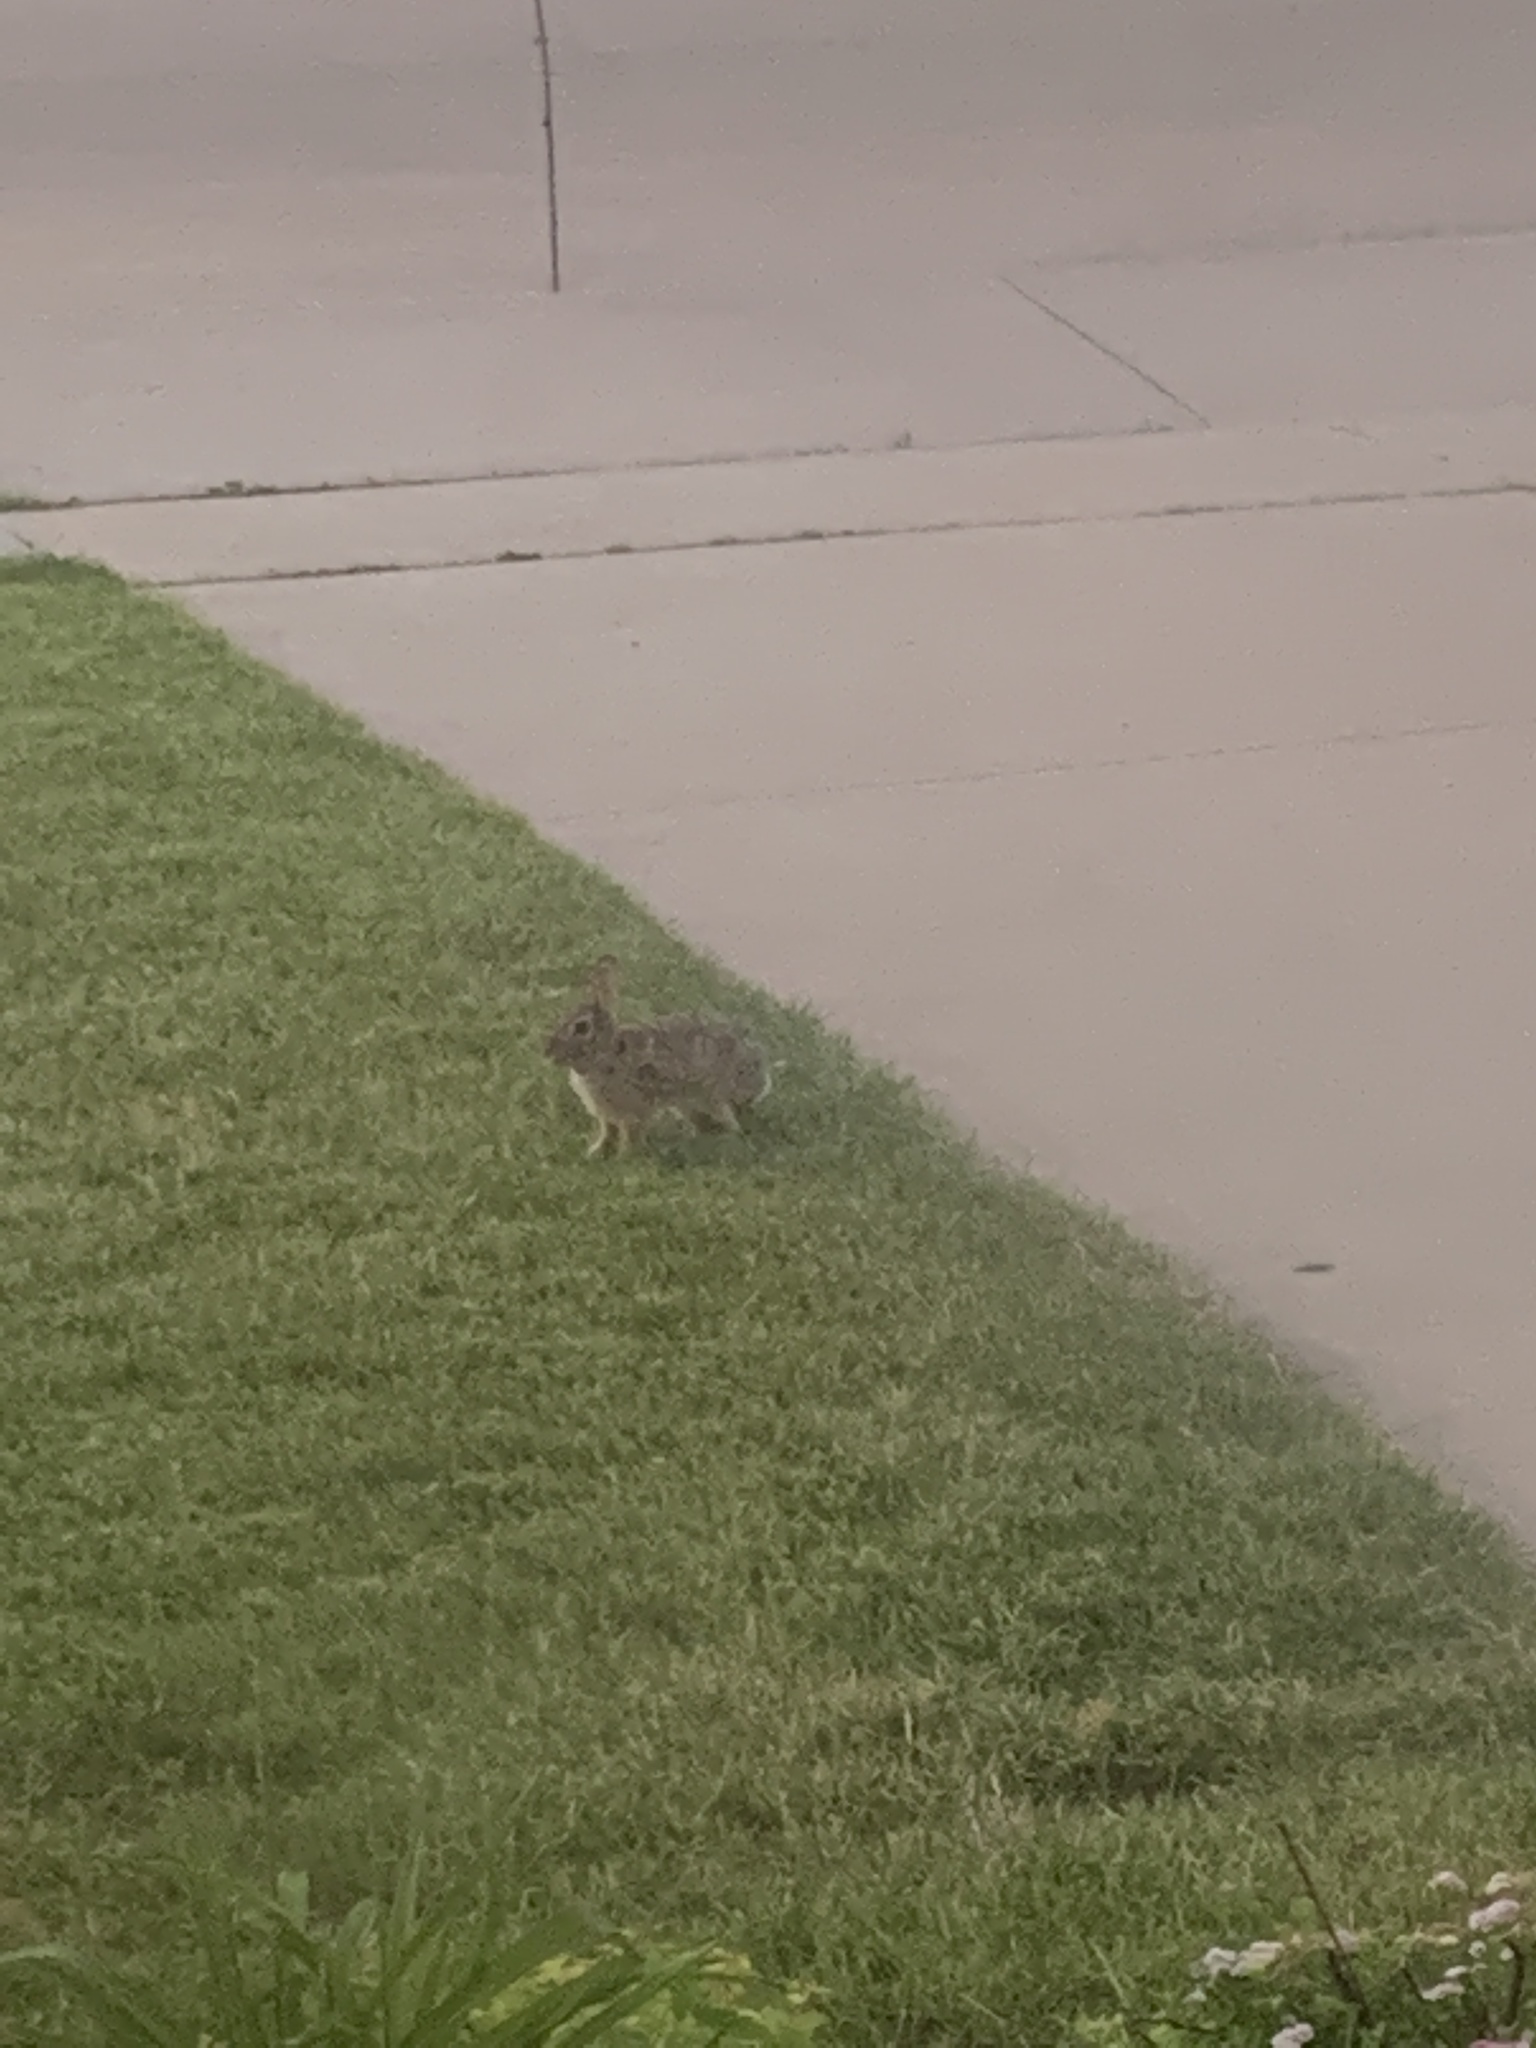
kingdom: Animalia
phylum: Chordata
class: Mammalia
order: Lagomorpha
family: Leporidae
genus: Sylvilagus
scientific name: Sylvilagus floridanus
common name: Eastern cottontail
